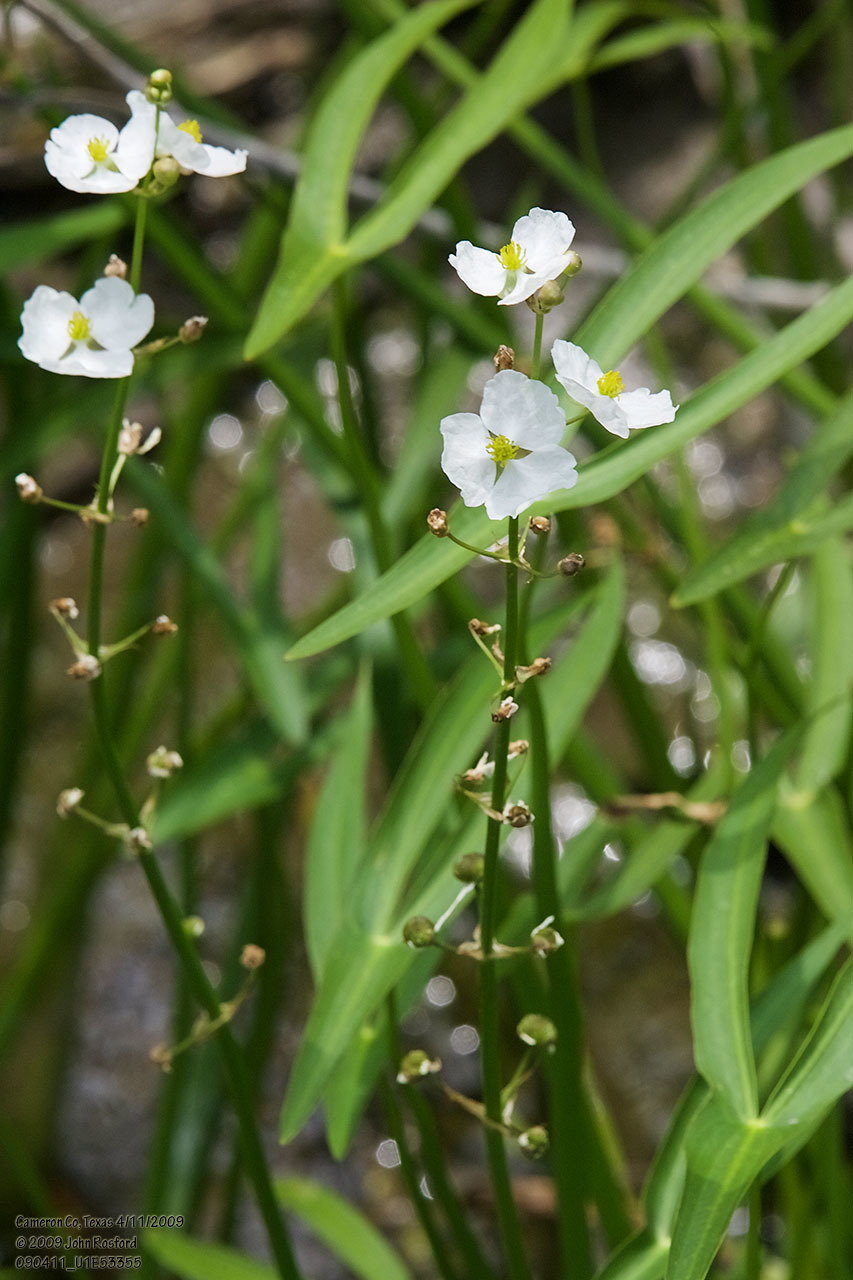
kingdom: Plantae
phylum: Tracheophyta
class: Liliopsida
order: Alismatales
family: Alismataceae
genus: Sagittaria
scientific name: Sagittaria longiloba
